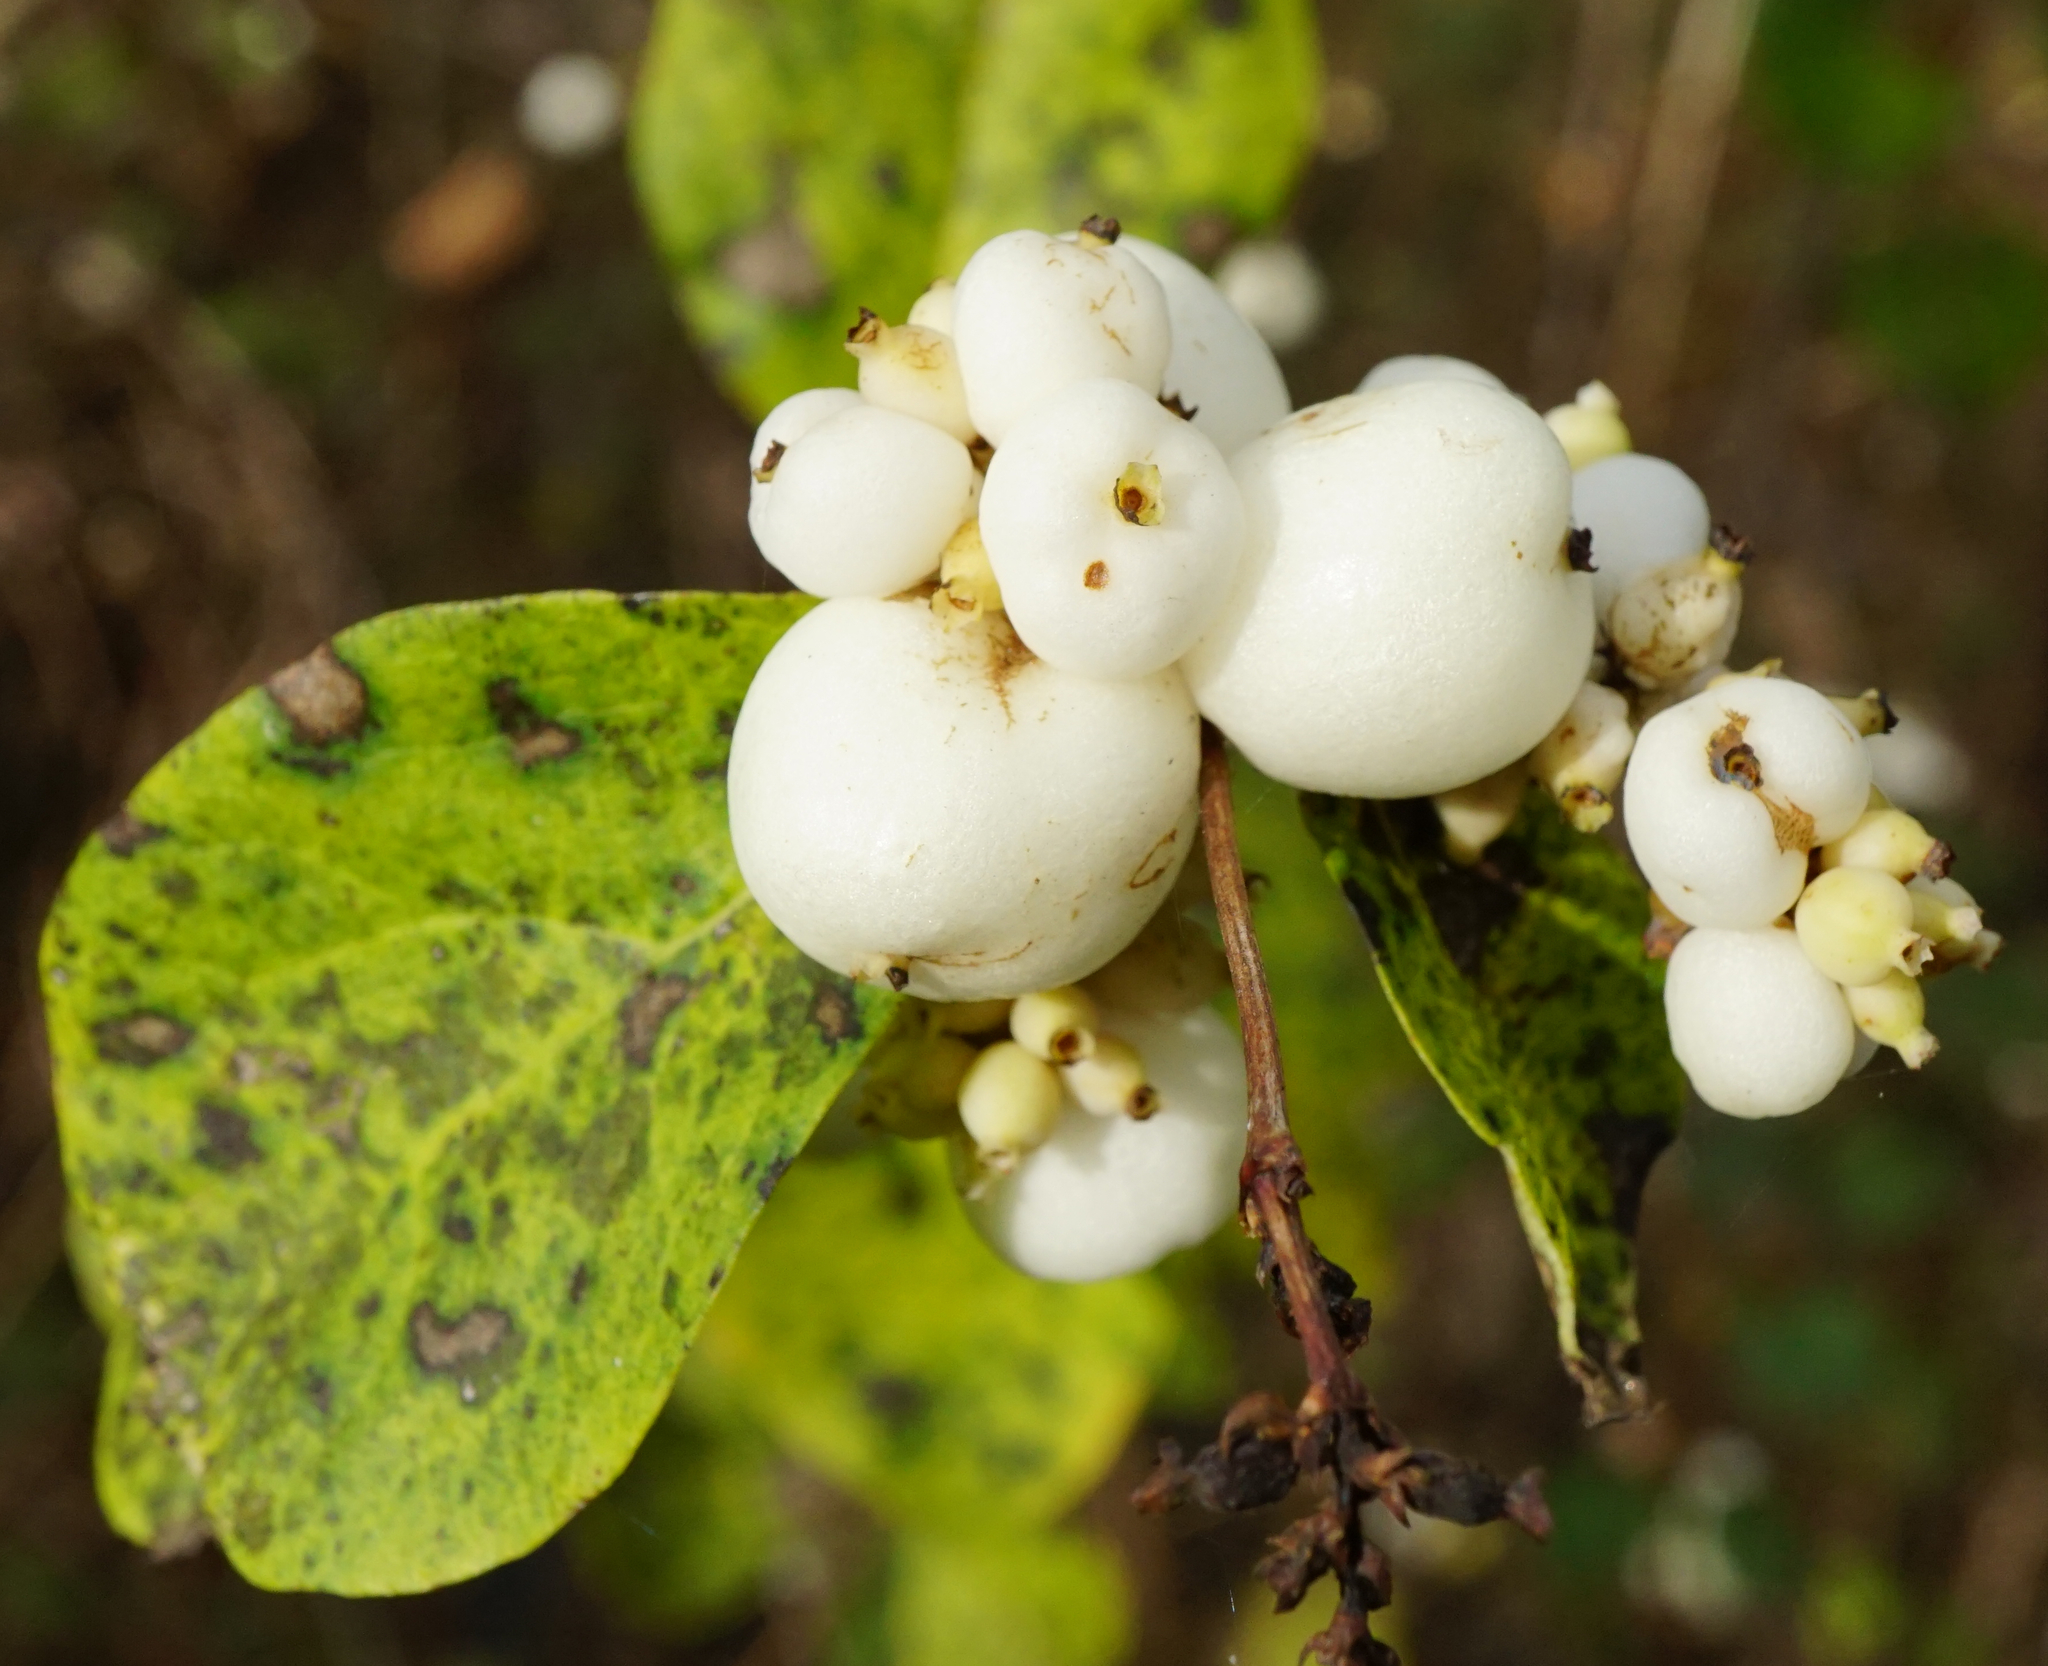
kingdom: Plantae
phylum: Tracheophyta
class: Magnoliopsida
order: Dipsacales
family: Caprifoliaceae
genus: Symphoricarpos
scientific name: Symphoricarpos albus
